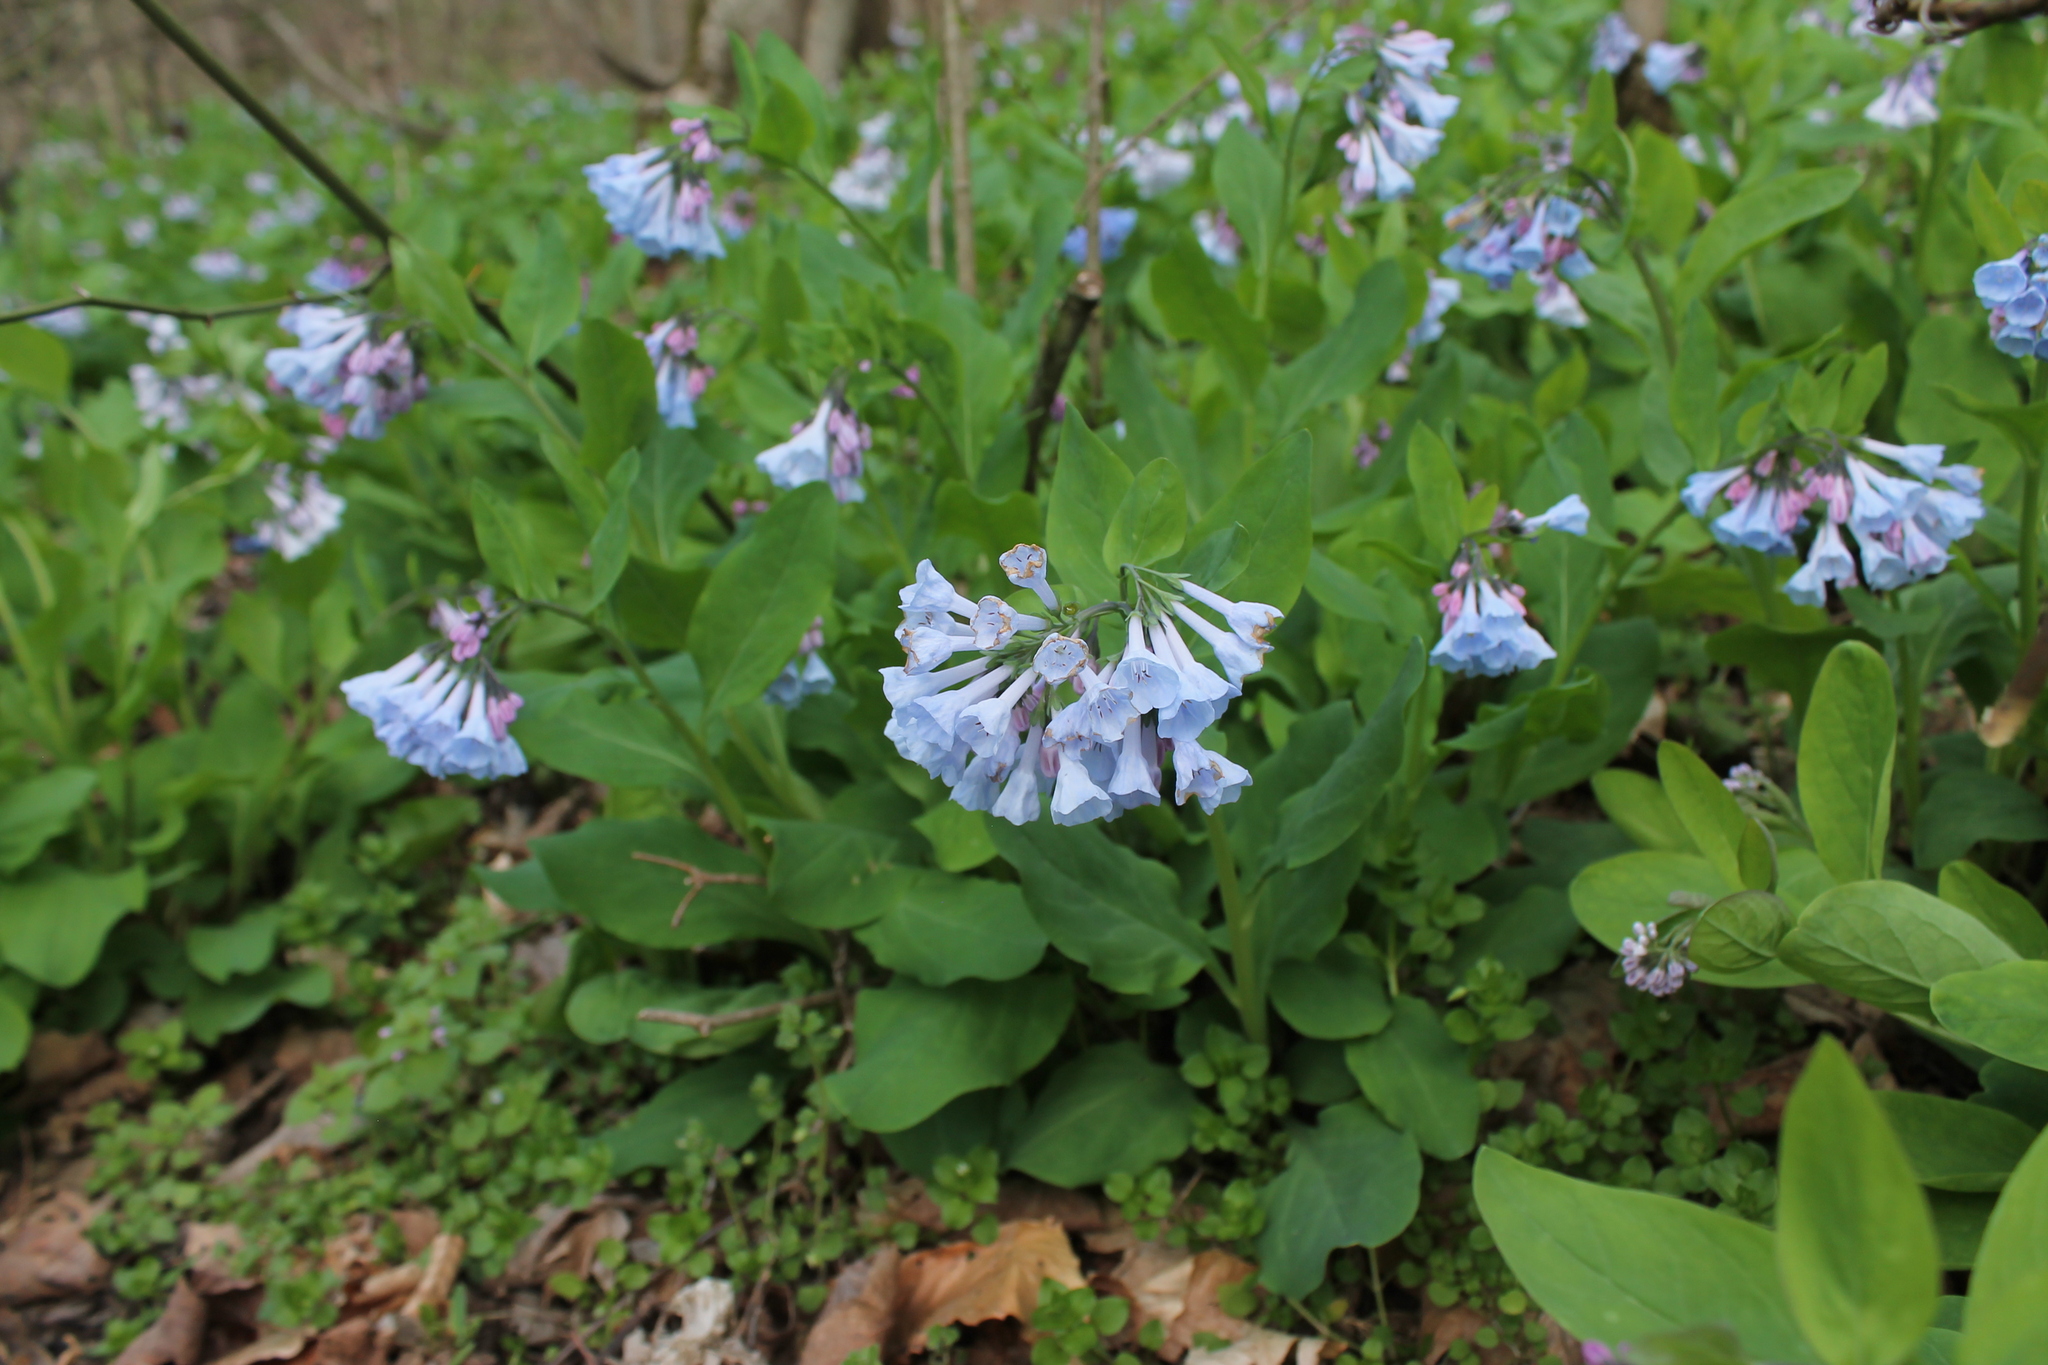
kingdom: Plantae
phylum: Tracheophyta
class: Magnoliopsida
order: Boraginales
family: Boraginaceae
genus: Mertensia
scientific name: Mertensia virginica
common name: Virginia bluebells
